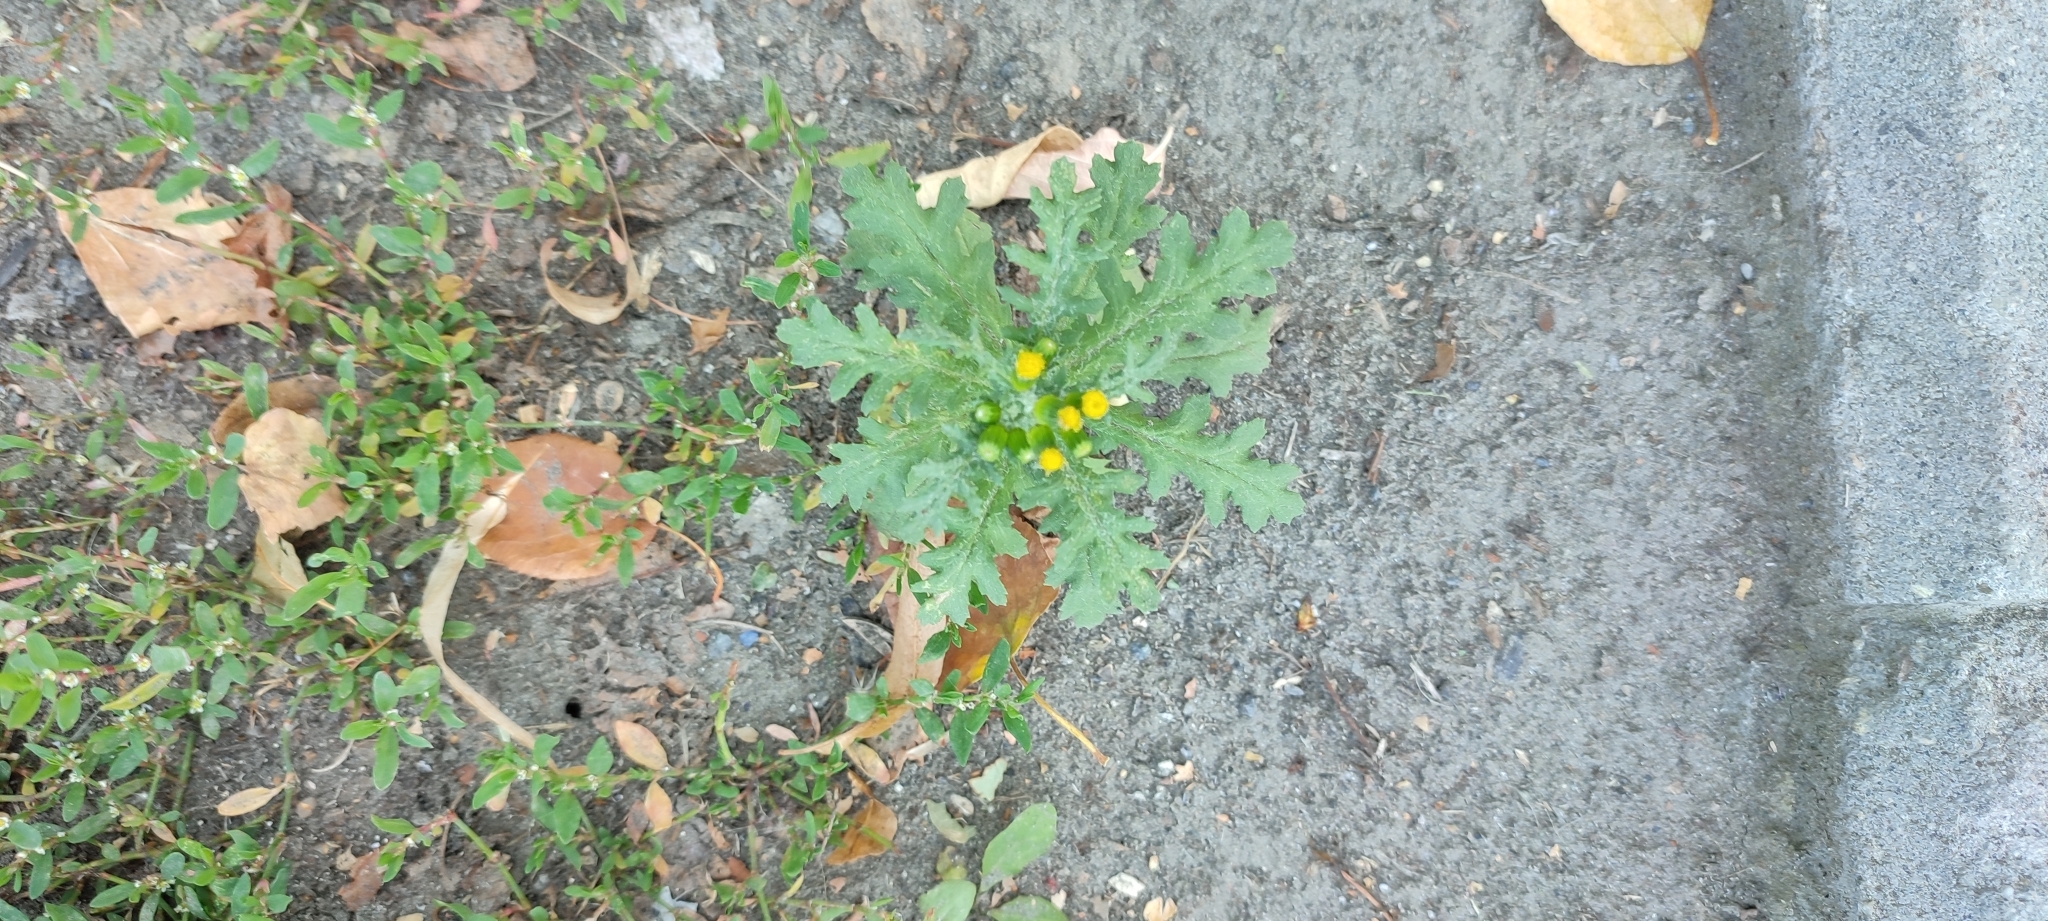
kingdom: Plantae
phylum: Tracheophyta
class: Magnoliopsida
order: Asterales
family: Asteraceae
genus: Senecio
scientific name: Senecio vulgaris
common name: Old-man-in-the-spring
